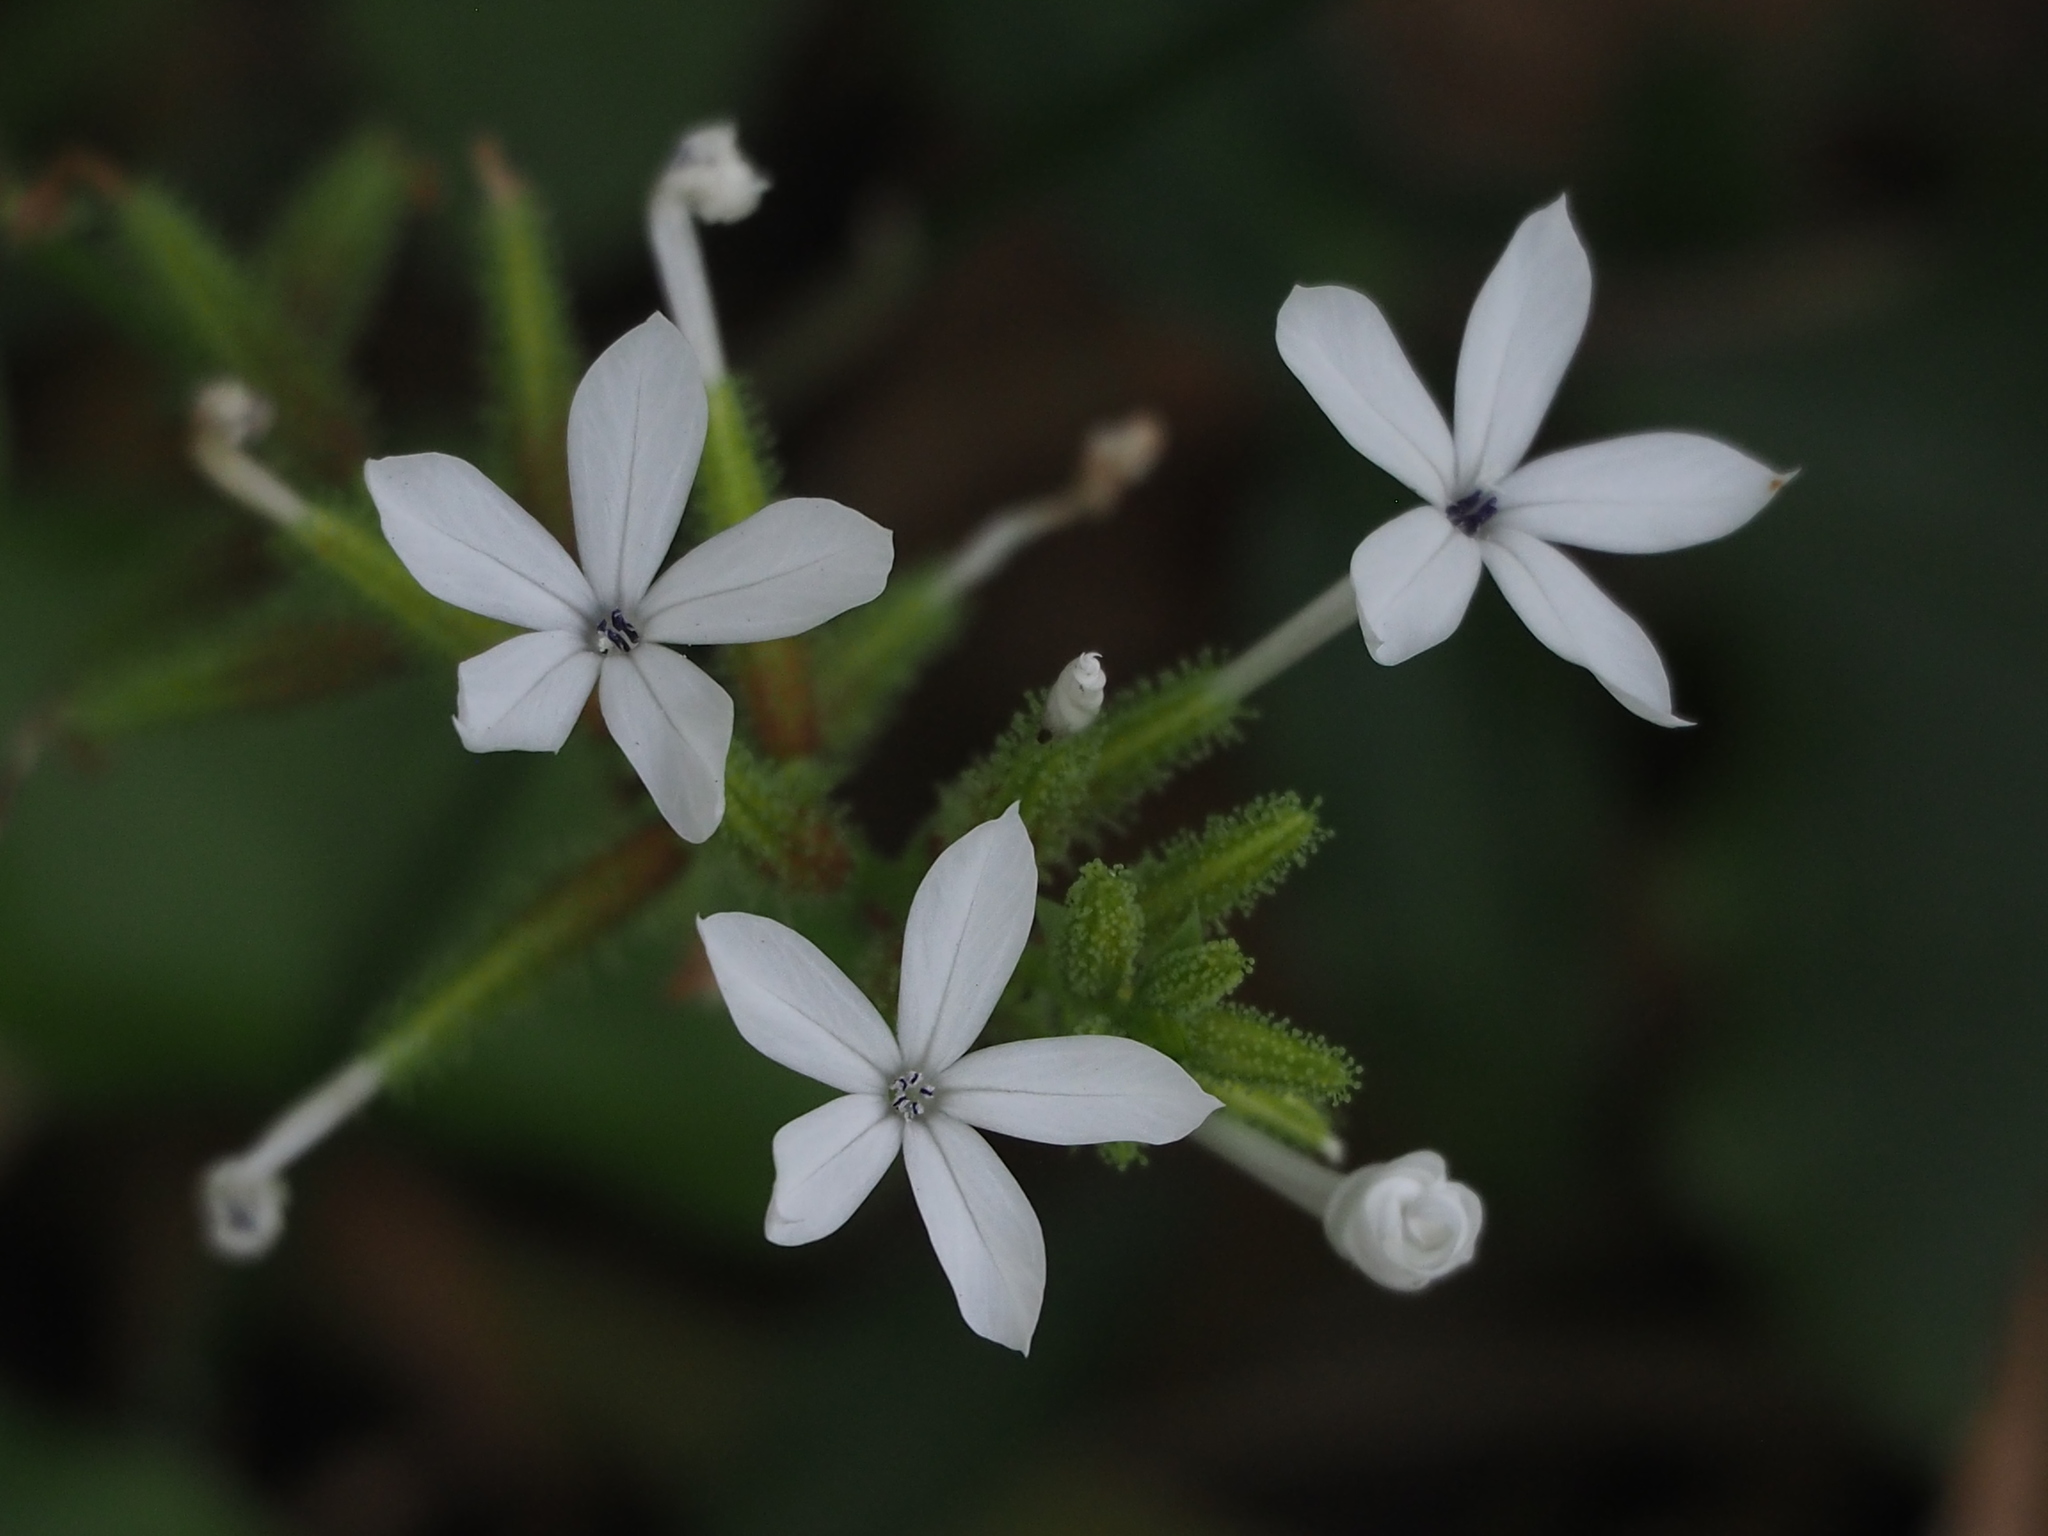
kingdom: Plantae
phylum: Tracheophyta
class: Magnoliopsida
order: Caryophyllales
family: Plumbaginaceae
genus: Plumbago
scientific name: Plumbago zeylanica
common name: Doctorbush
